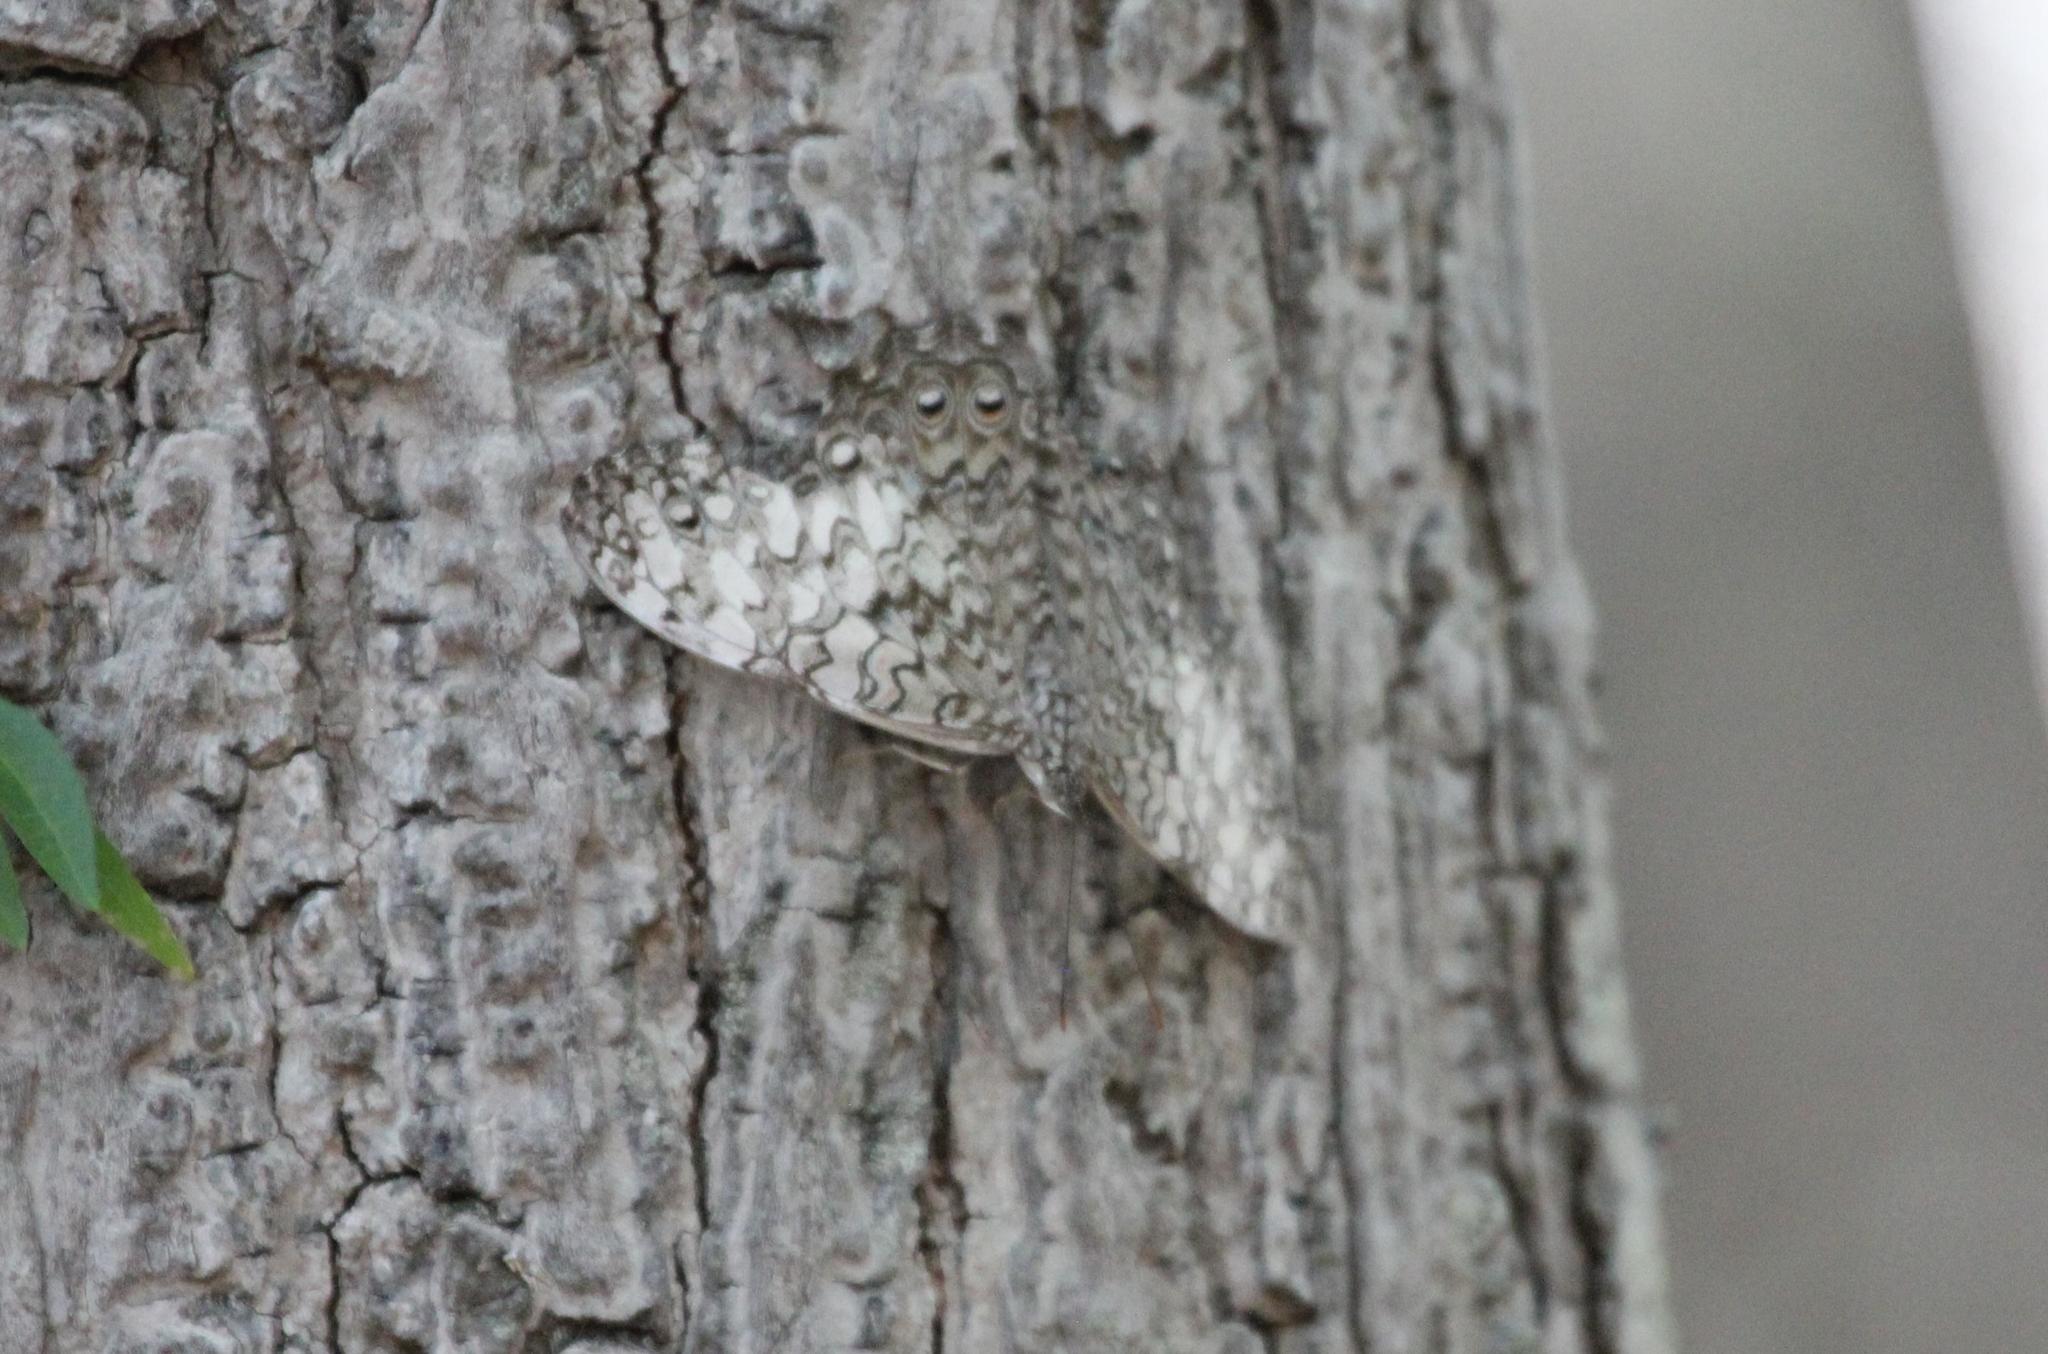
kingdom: Animalia
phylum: Arthropoda
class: Insecta
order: Lepidoptera
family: Nymphalidae
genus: Hamadryas
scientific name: Hamadryas februa
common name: Gray cracker
